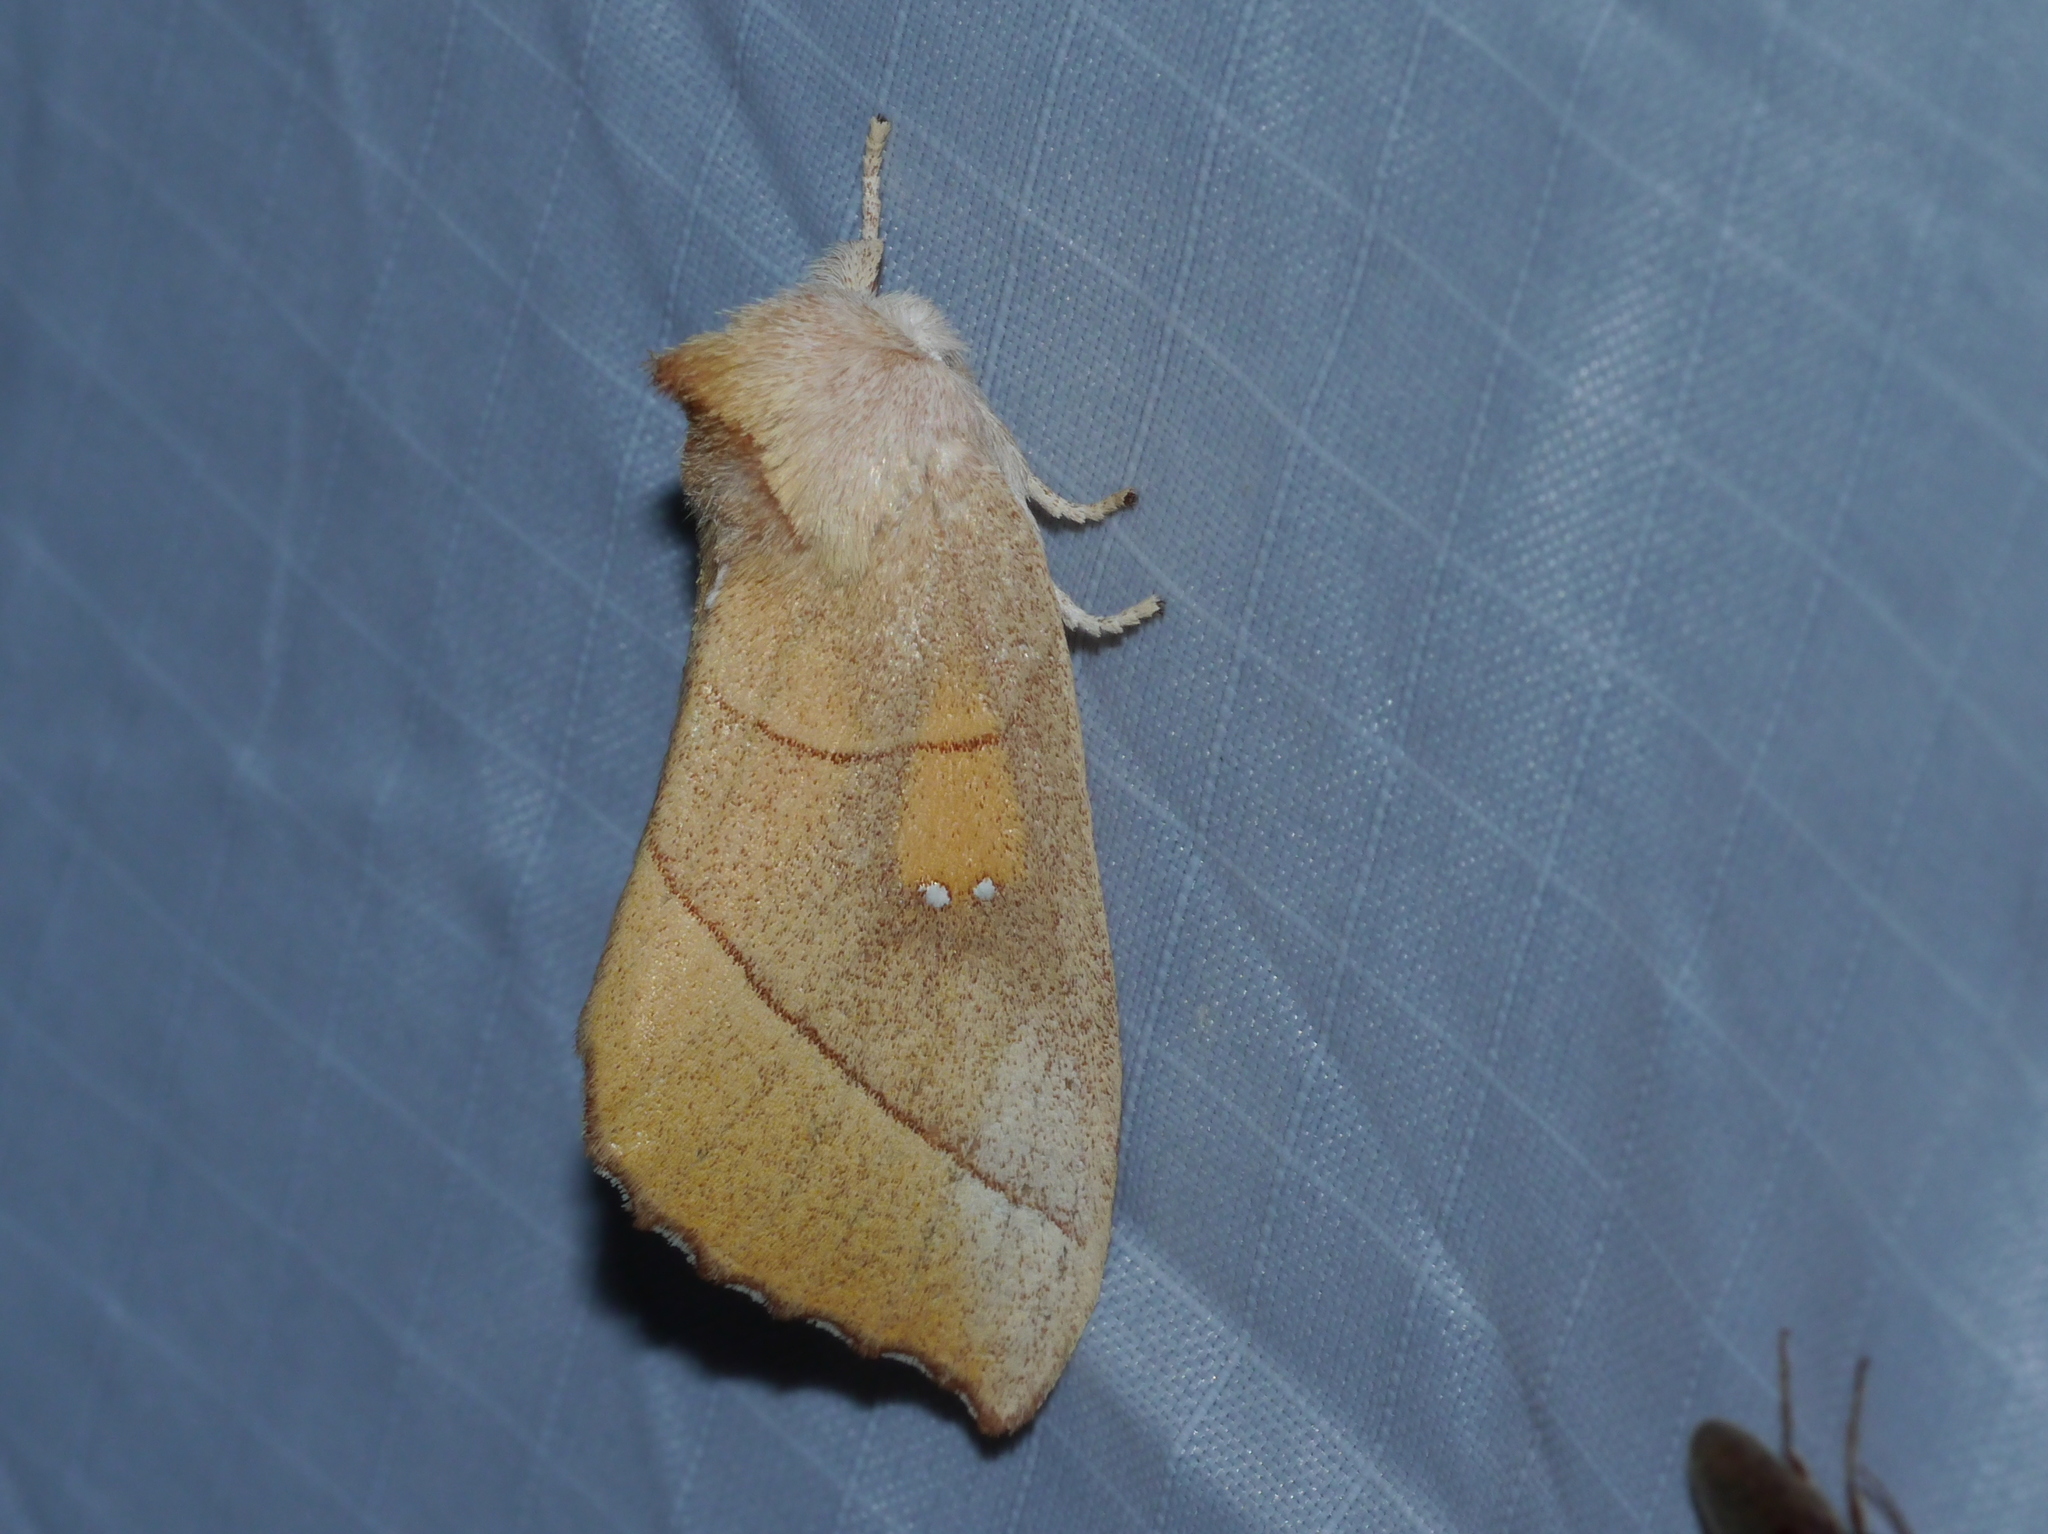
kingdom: Animalia
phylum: Arthropoda
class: Insecta
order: Lepidoptera
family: Notodontidae
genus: Nadata
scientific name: Nadata gibbosa
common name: White-dotted prominent
